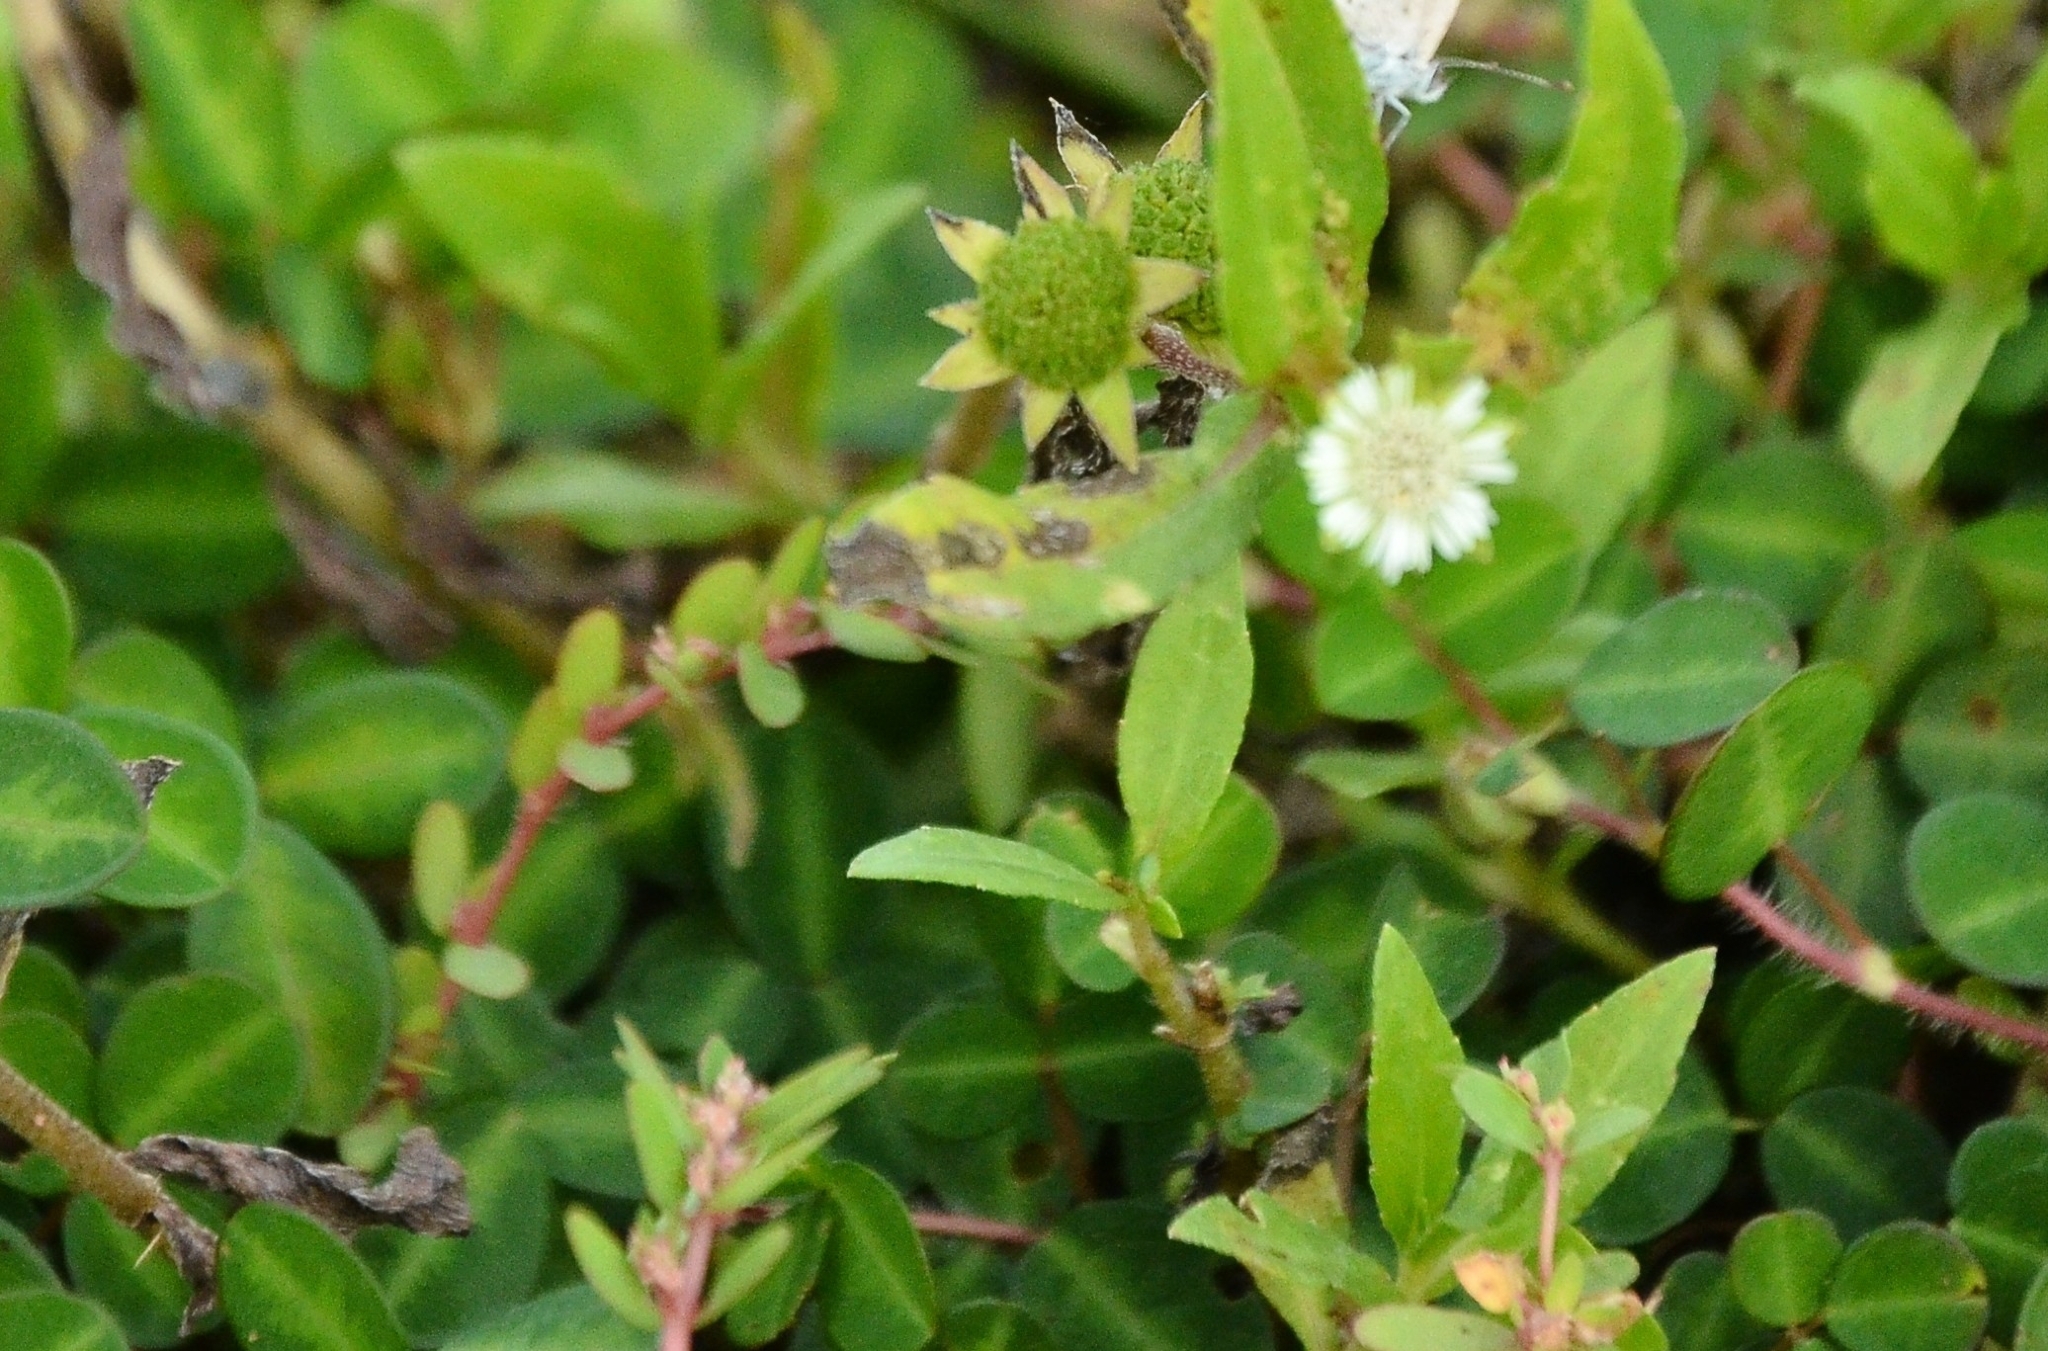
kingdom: Plantae
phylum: Tracheophyta
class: Magnoliopsida
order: Asterales
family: Asteraceae
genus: Eclipta
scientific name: Eclipta prostrata
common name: False daisy
